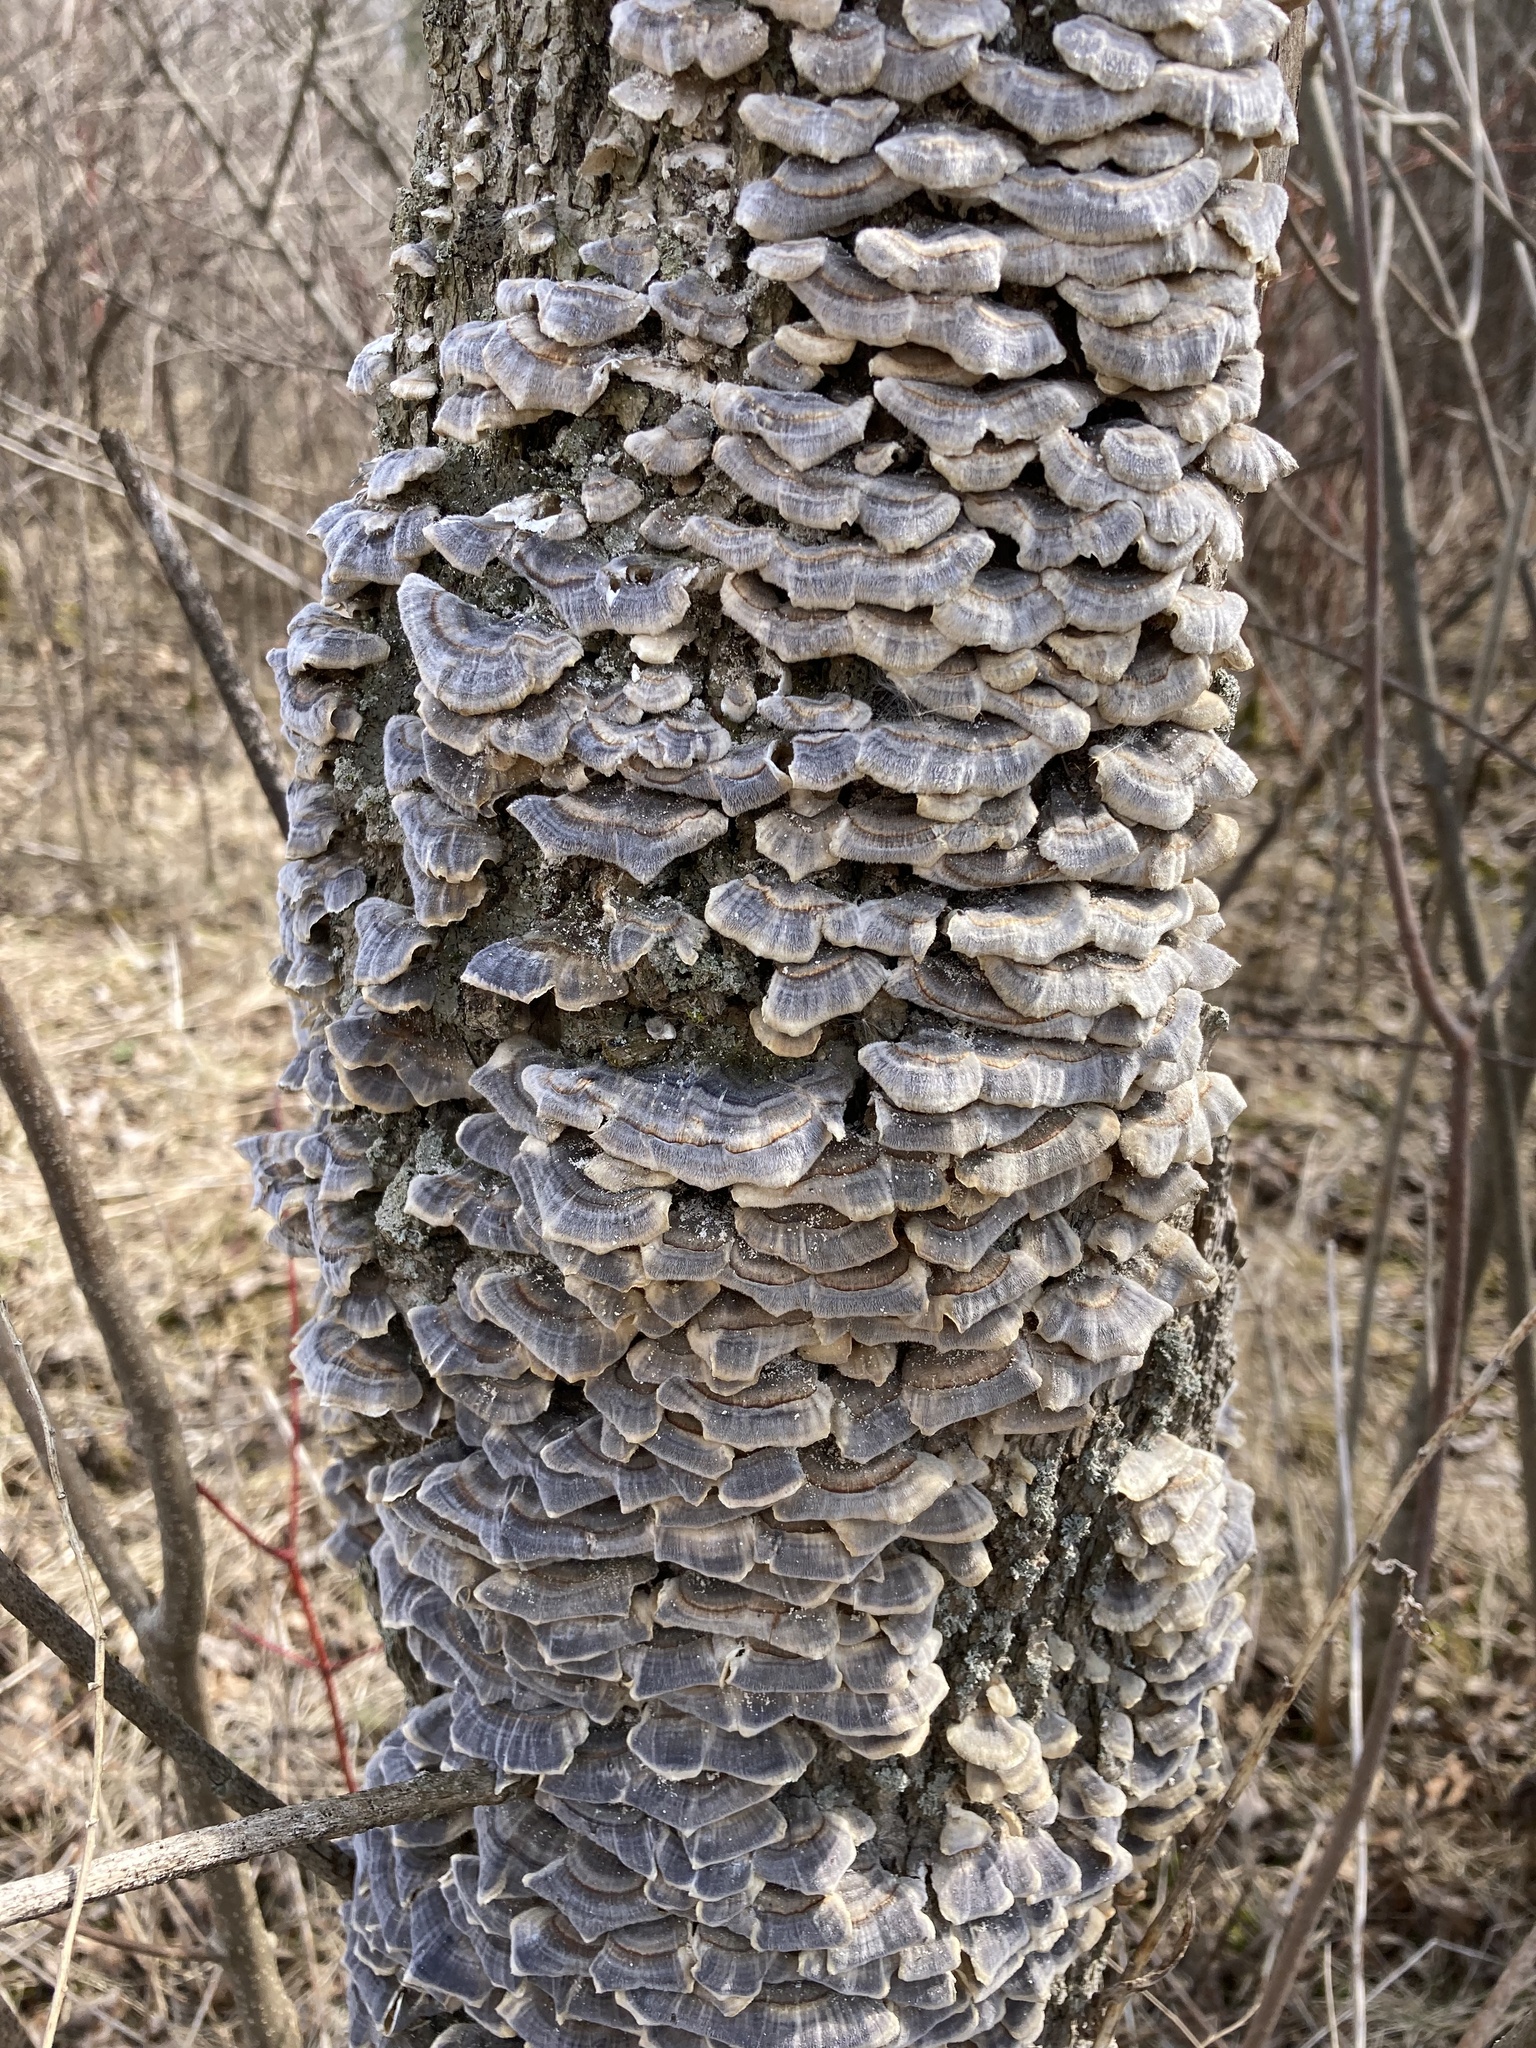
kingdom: Fungi
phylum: Basidiomycota
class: Agaricomycetes
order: Polyporales
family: Polyporaceae
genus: Trametes
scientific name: Trametes versicolor
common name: Turkeytail
